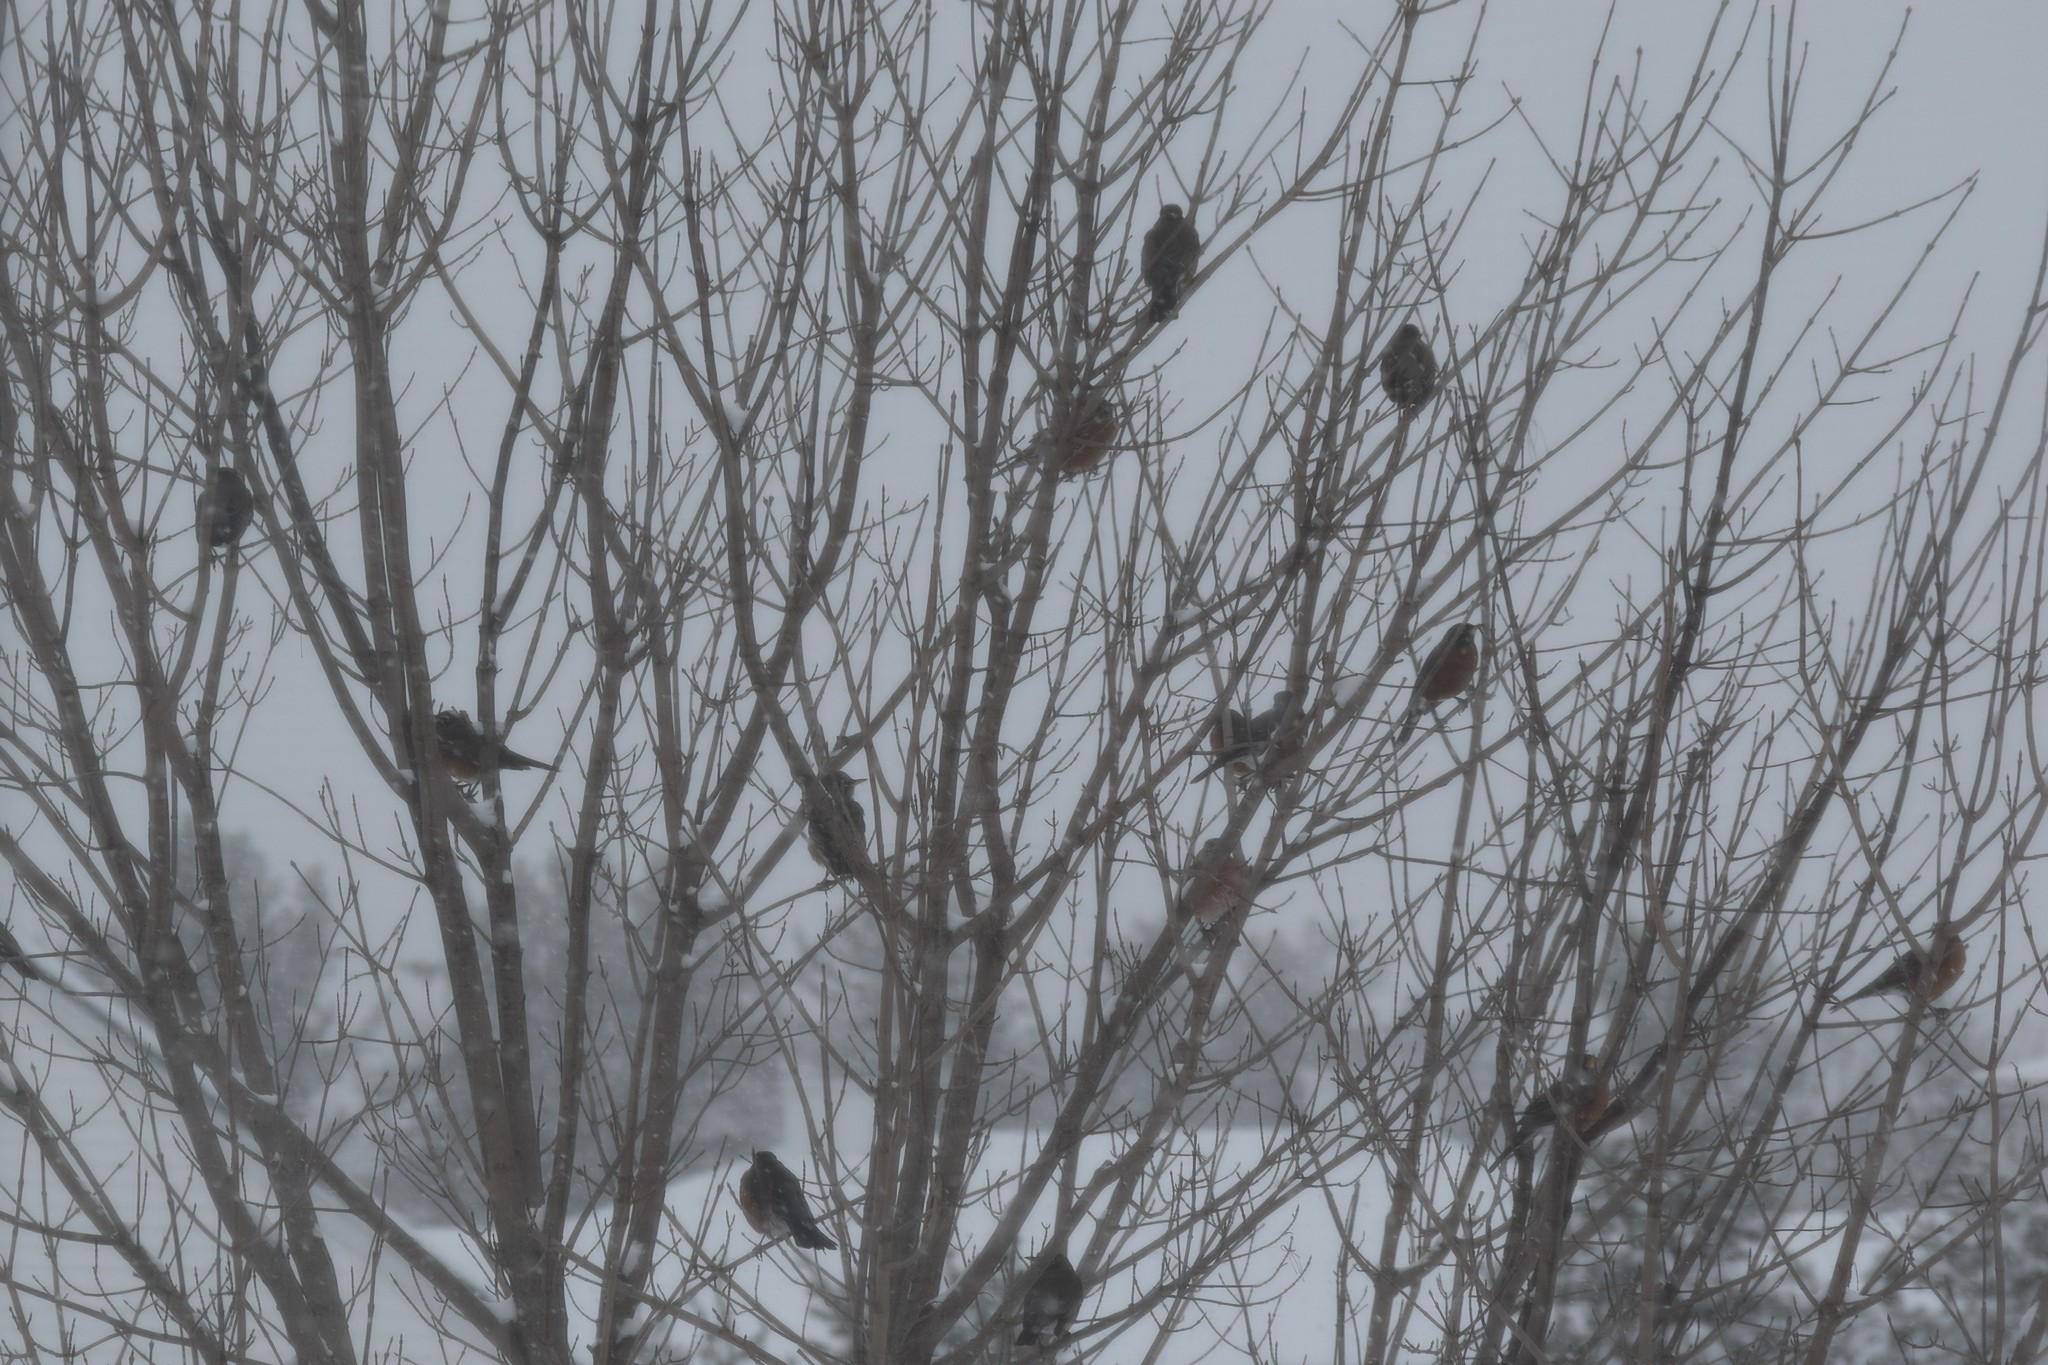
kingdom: Animalia
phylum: Chordata
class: Aves
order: Passeriformes
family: Turdidae
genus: Turdus
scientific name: Turdus migratorius
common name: American robin
